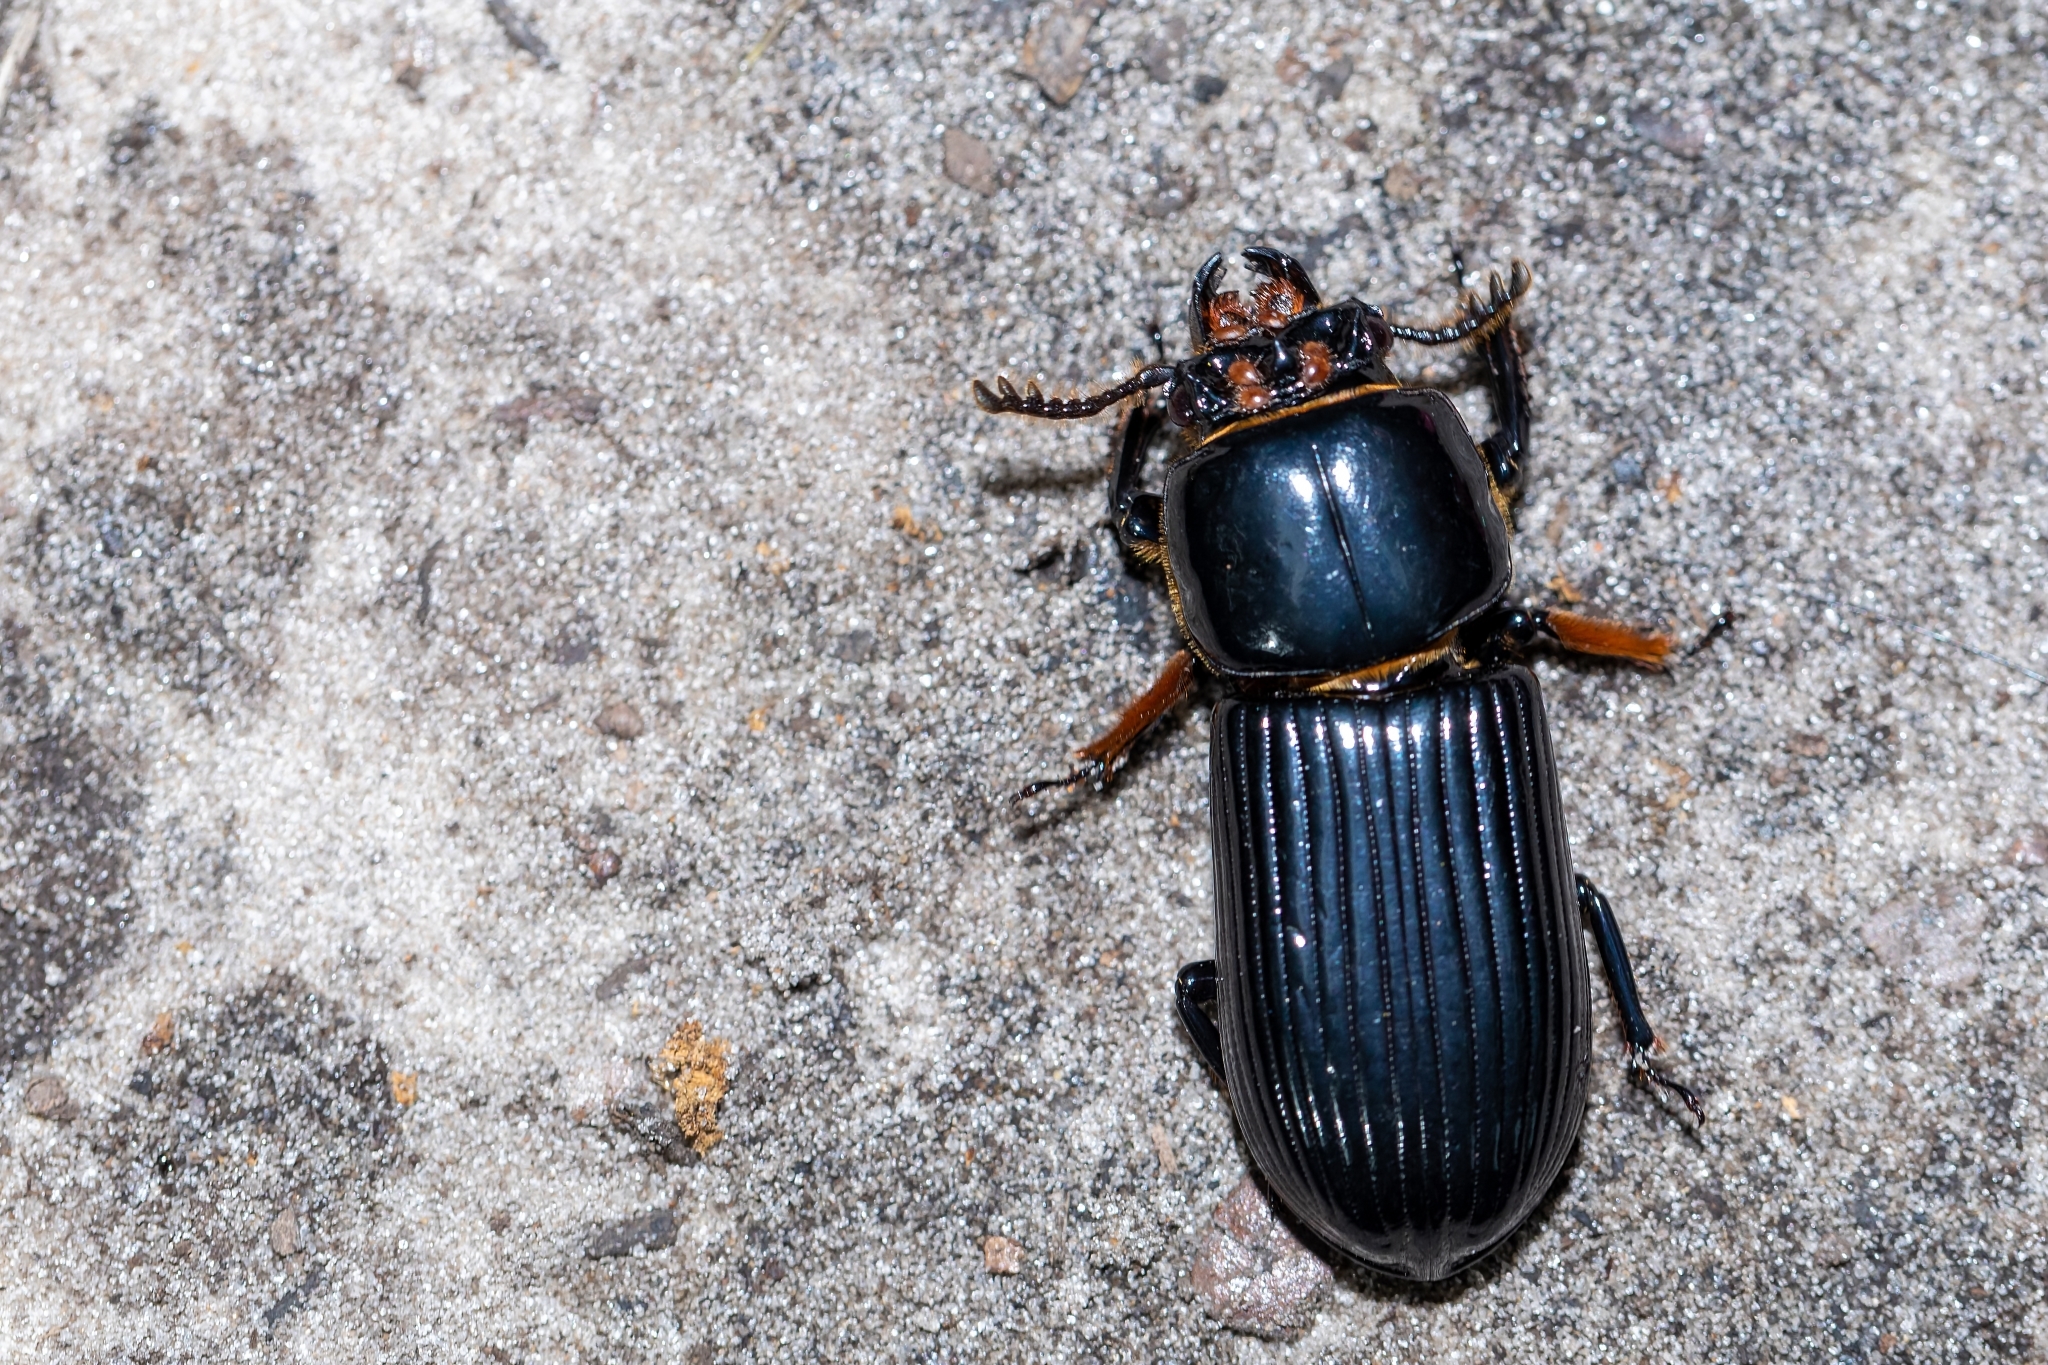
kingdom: Animalia
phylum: Arthropoda
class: Insecta
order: Coleoptera
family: Passalidae
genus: Odontotaenius
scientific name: Odontotaenius disjunctus
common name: Patent leather beetle
